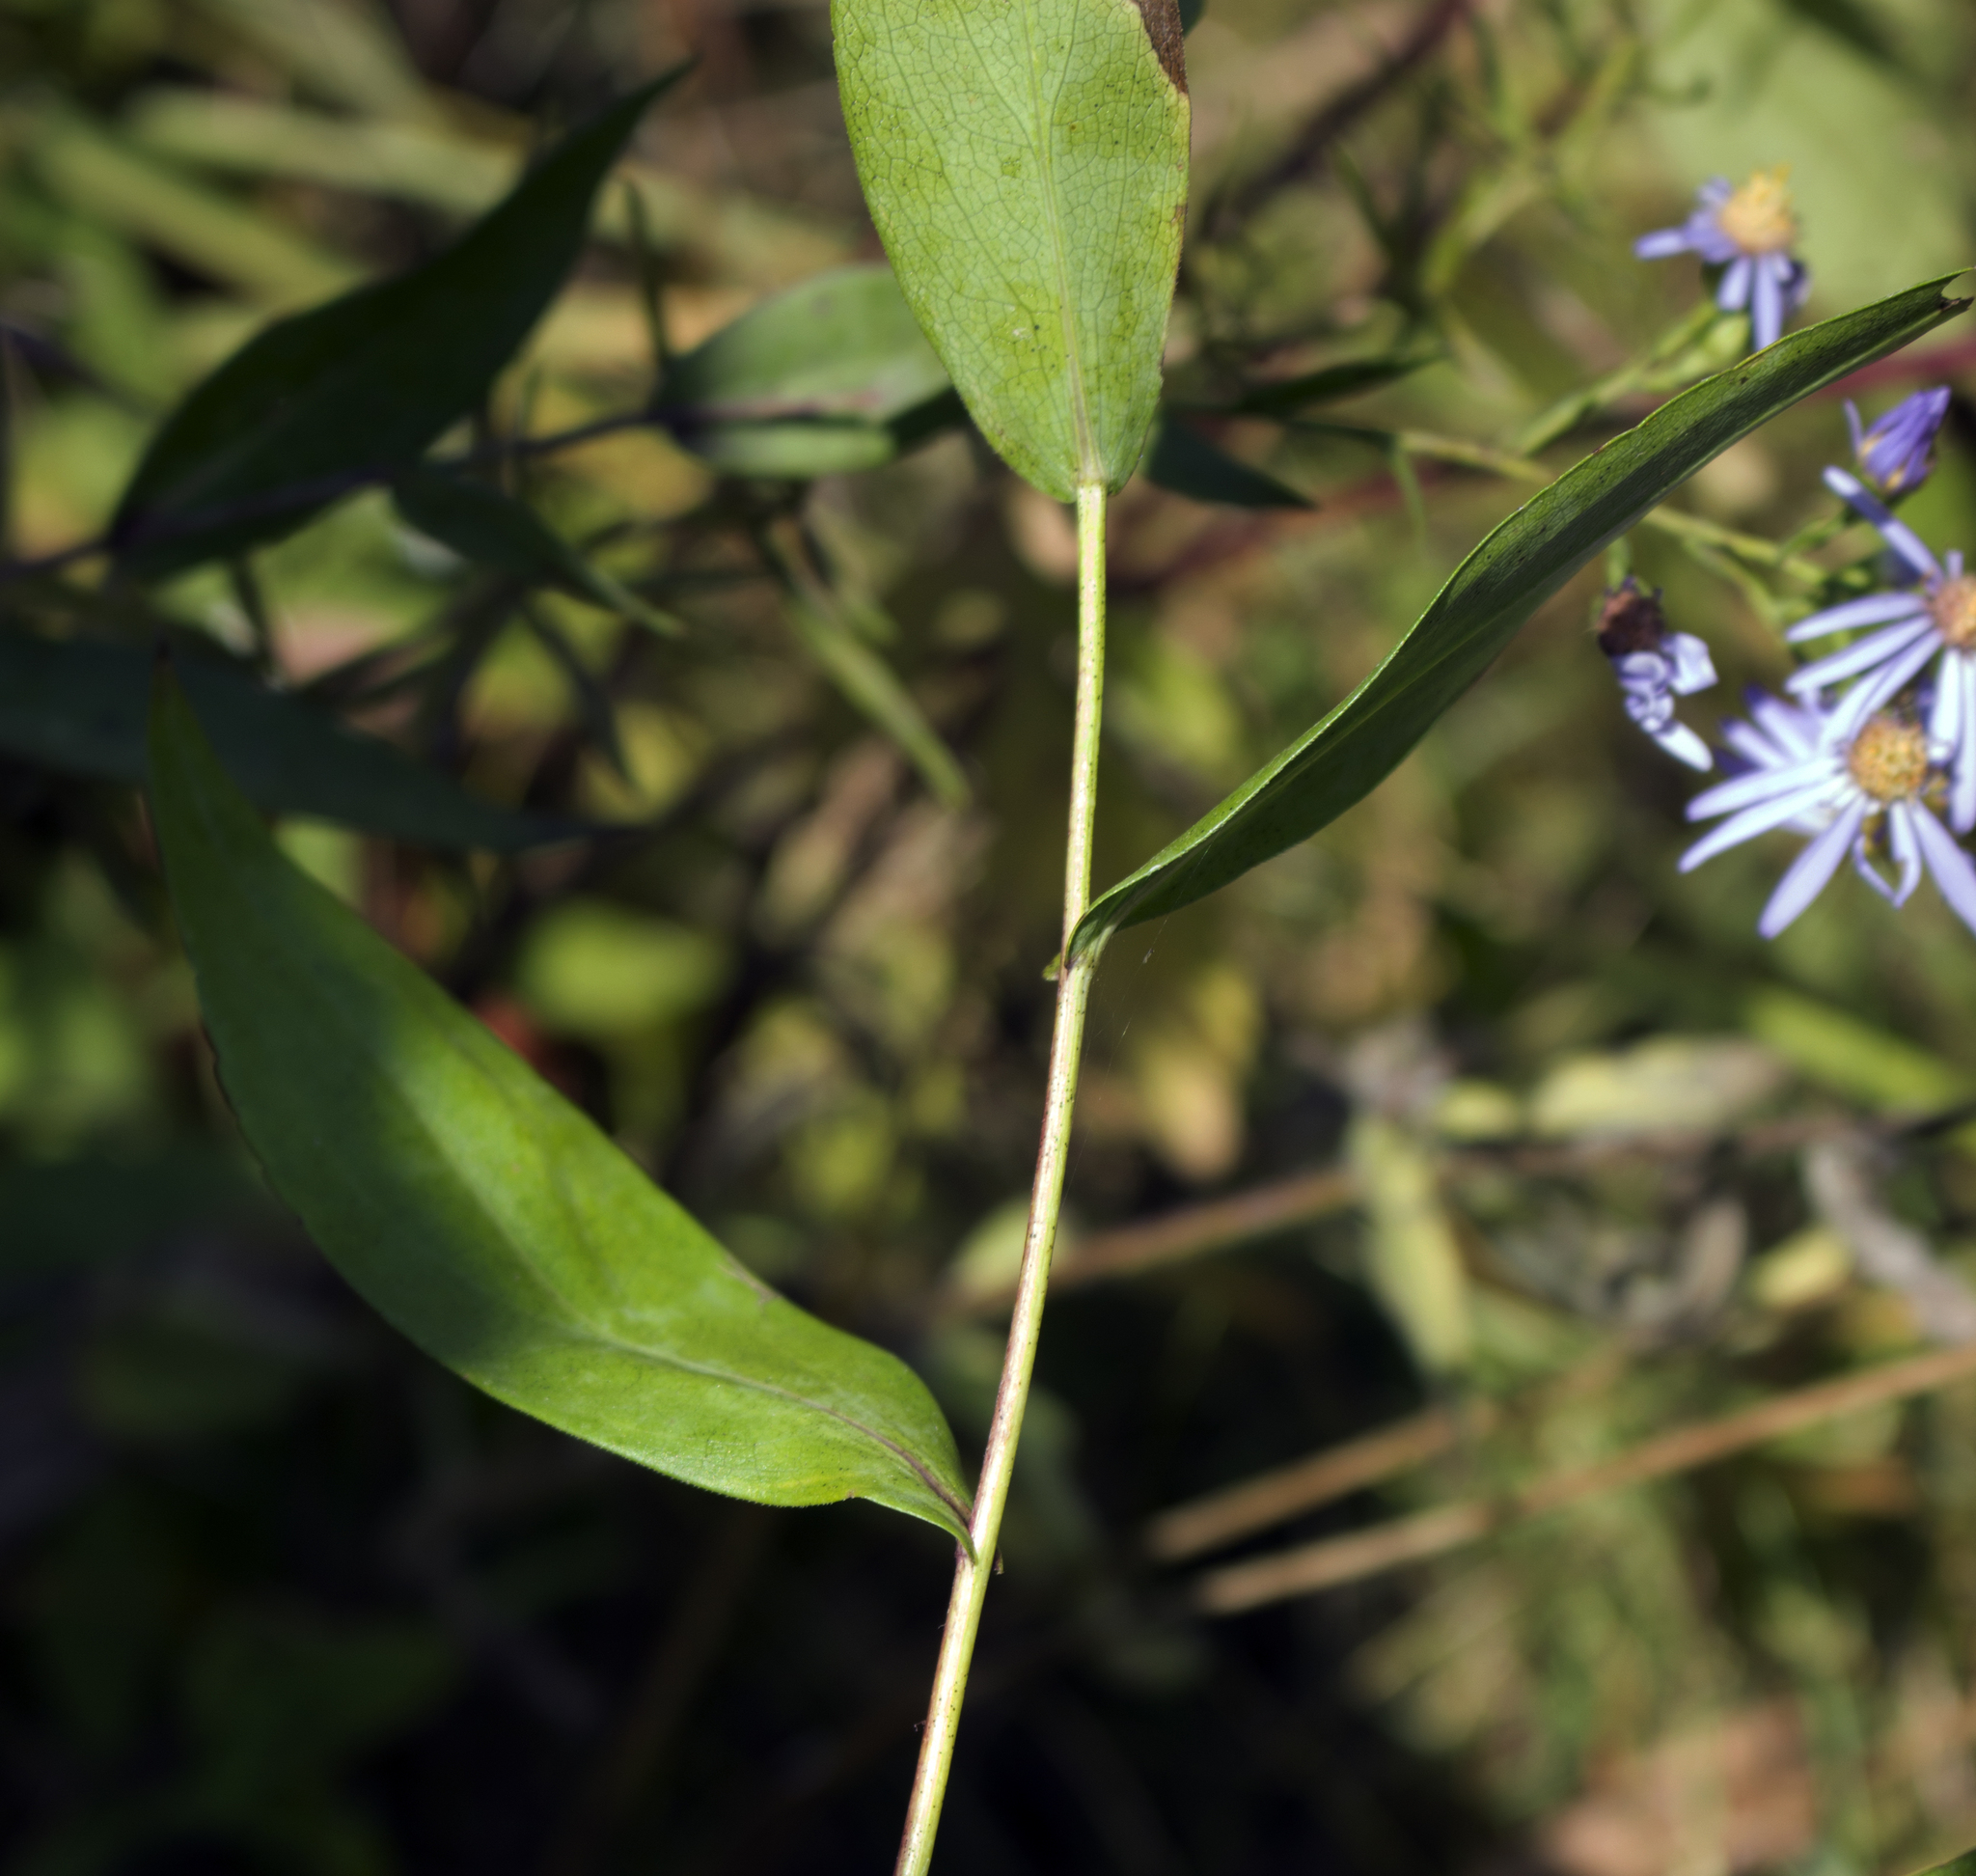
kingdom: Plantae
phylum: Tracheophyta
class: Magnoliopsida
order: Asterales
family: Asteraceae
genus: Symphyotrichum
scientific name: Symphyotrichum laeve
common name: Glaucous aster
